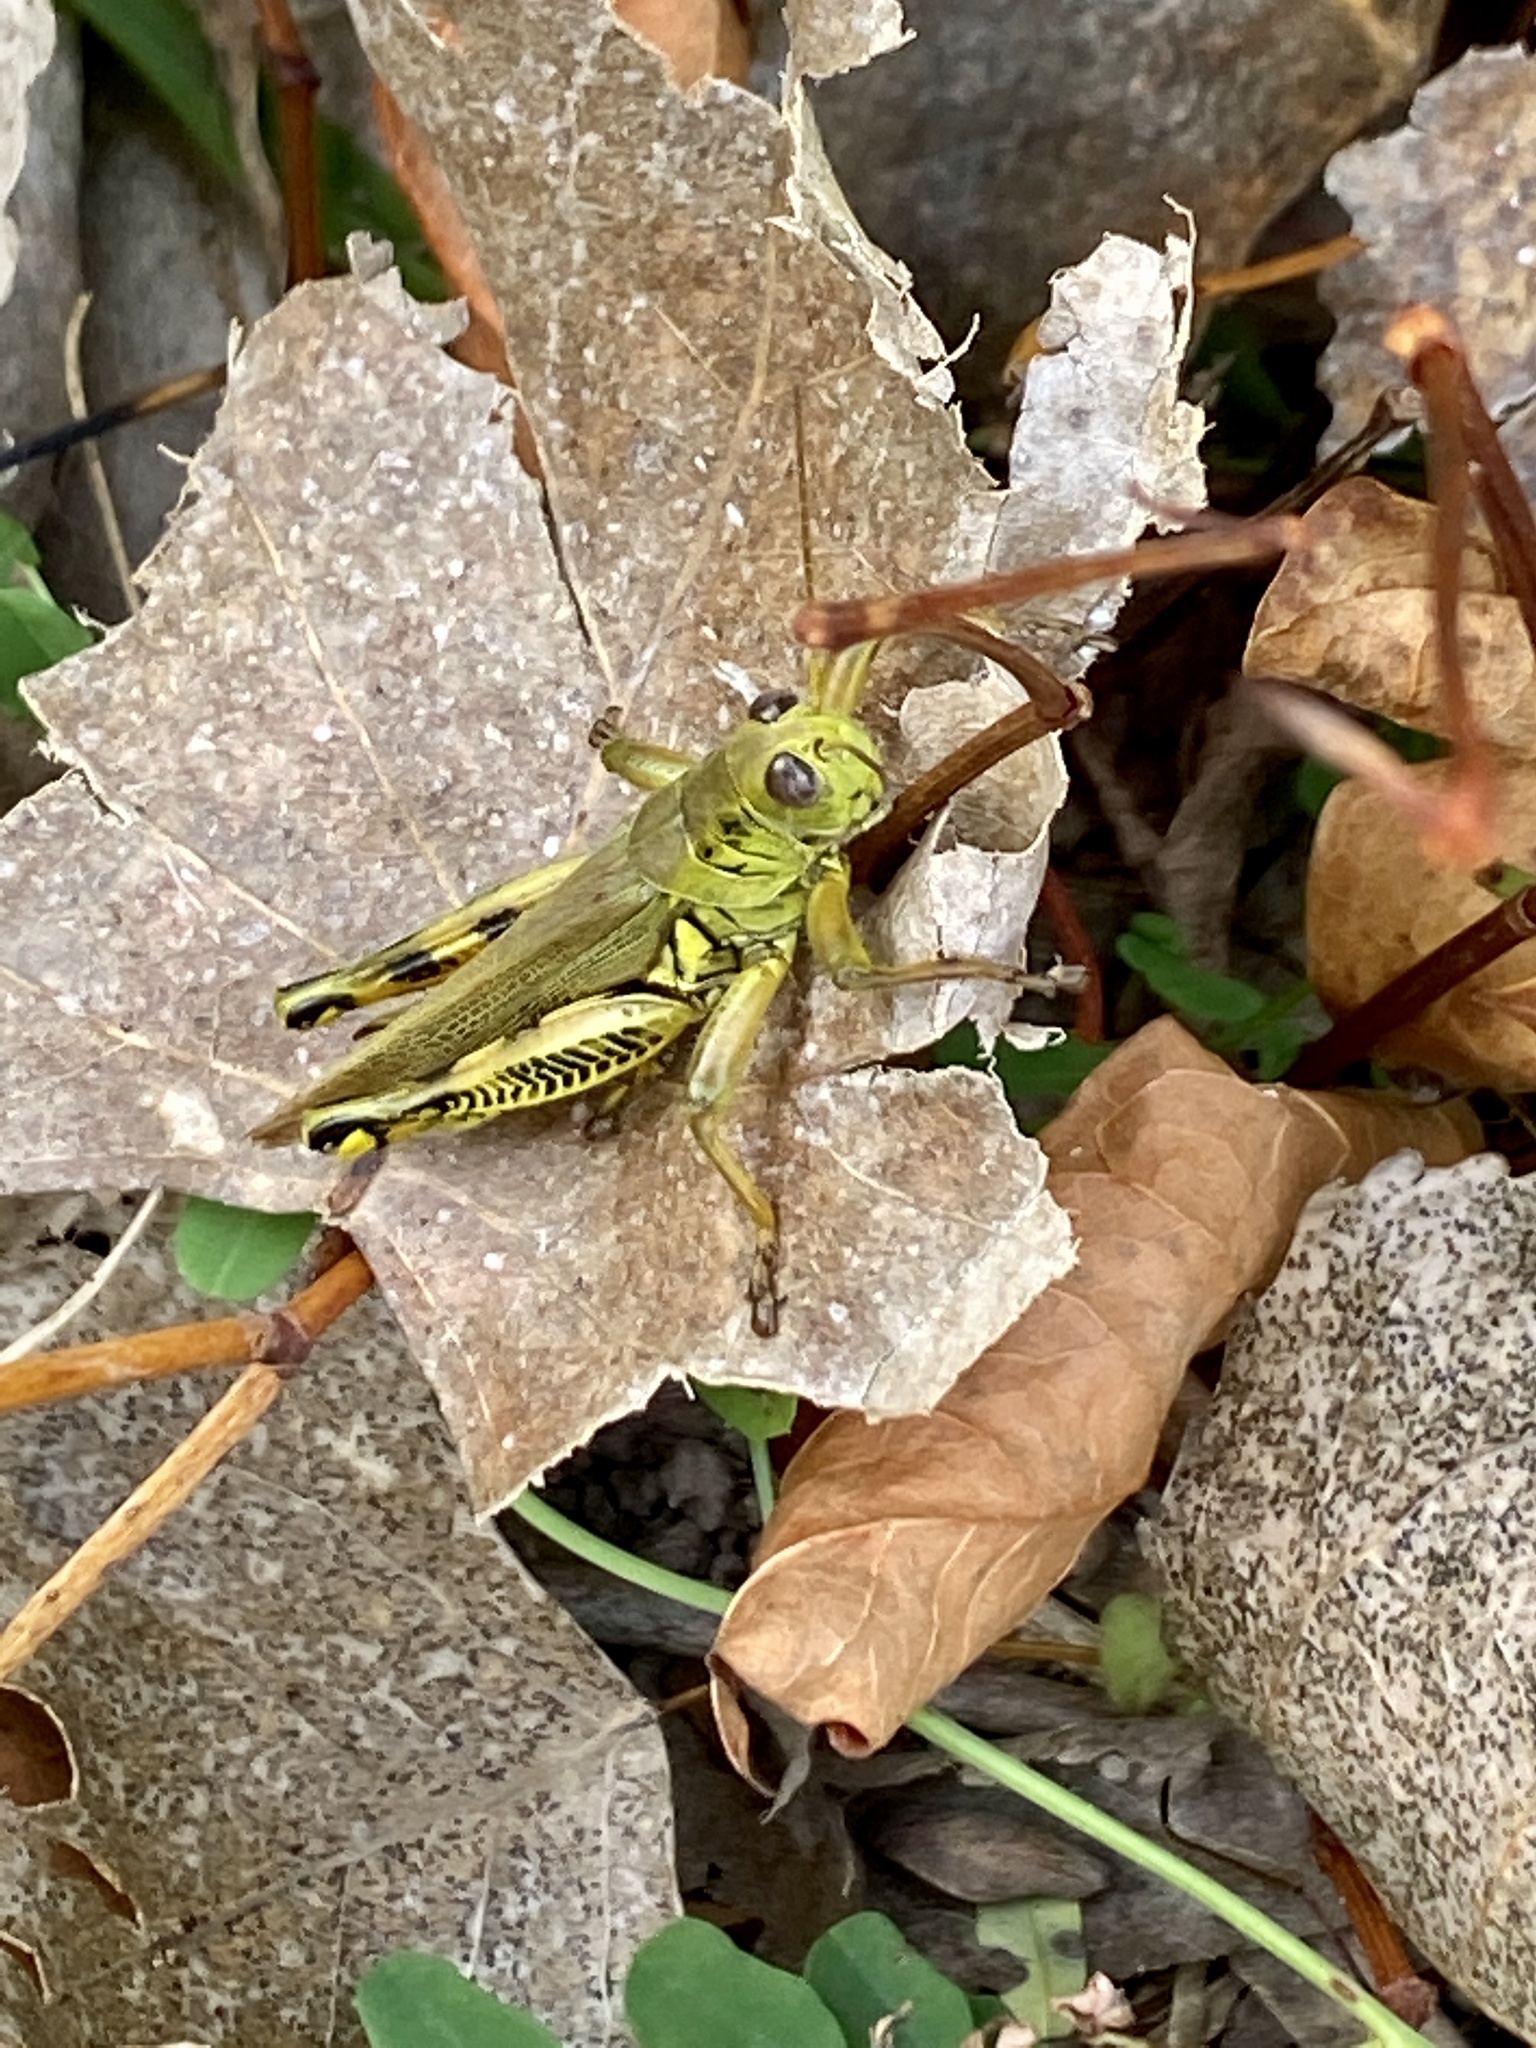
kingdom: Animalia
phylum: Arthropoda
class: Insecta
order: Orthoptera
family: Acrididae
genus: Melanoplus
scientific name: Melanoplus differentialis
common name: Differential grasshopper
